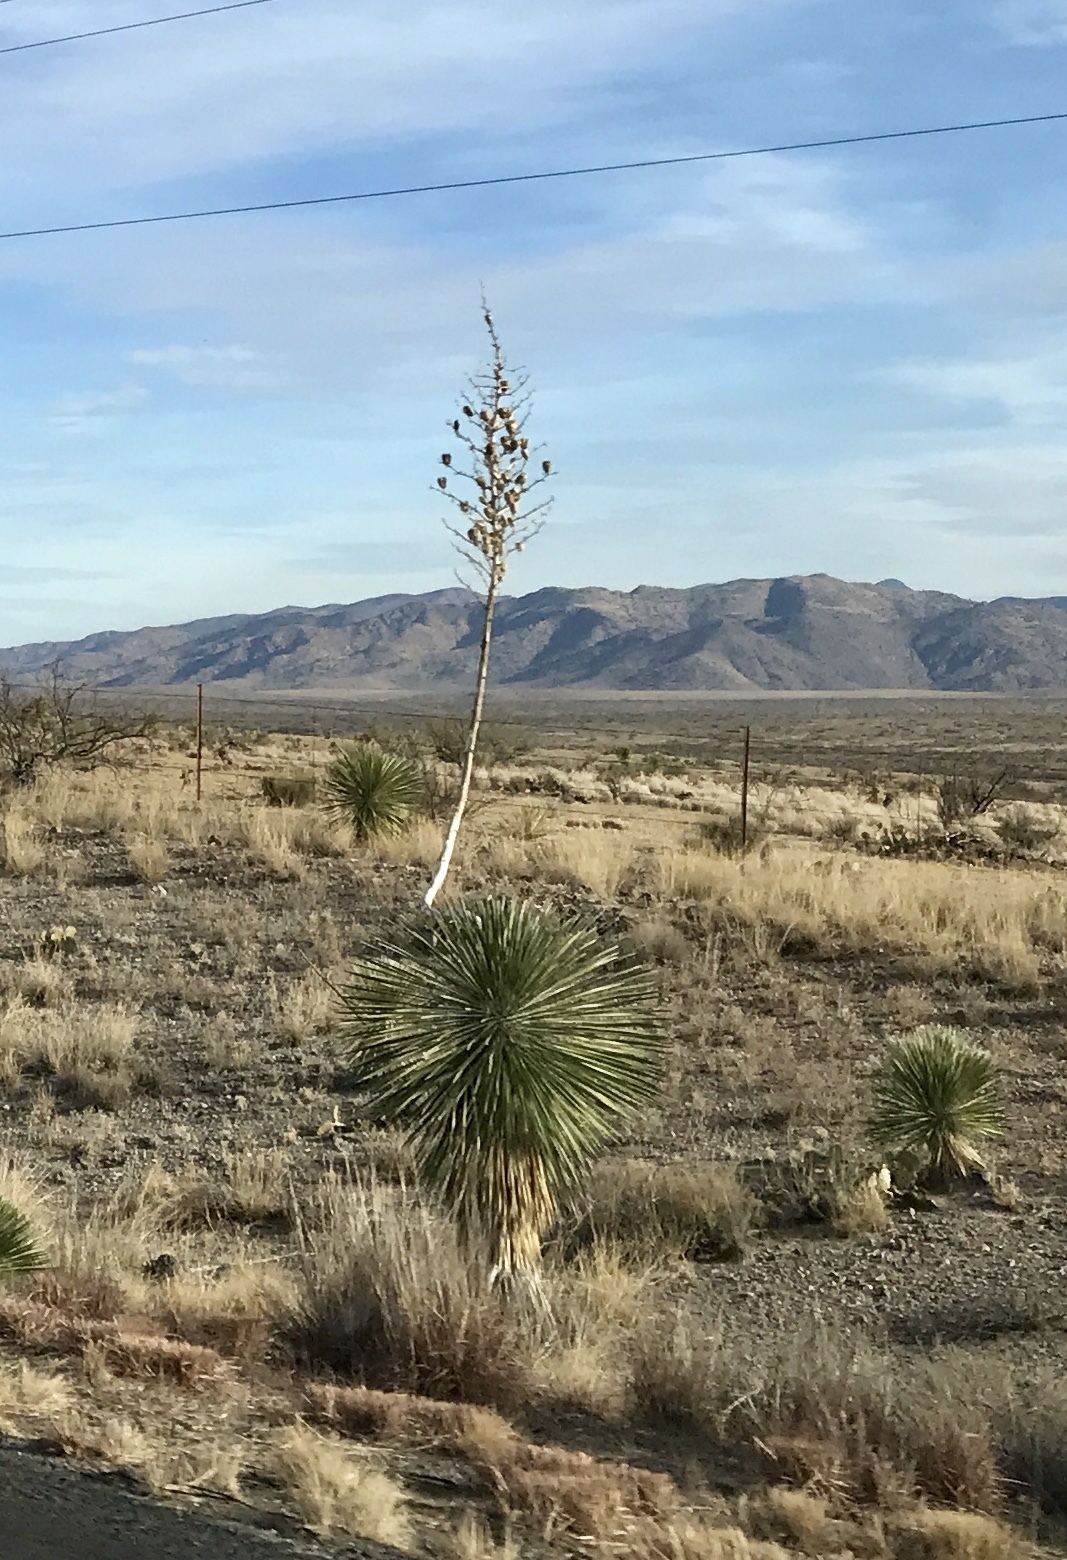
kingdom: Plantae
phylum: Tracheophyta
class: Liliopsida
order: Asparagales
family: Asparagaceae
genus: Yucca
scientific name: Yucca elata
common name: Palmella
